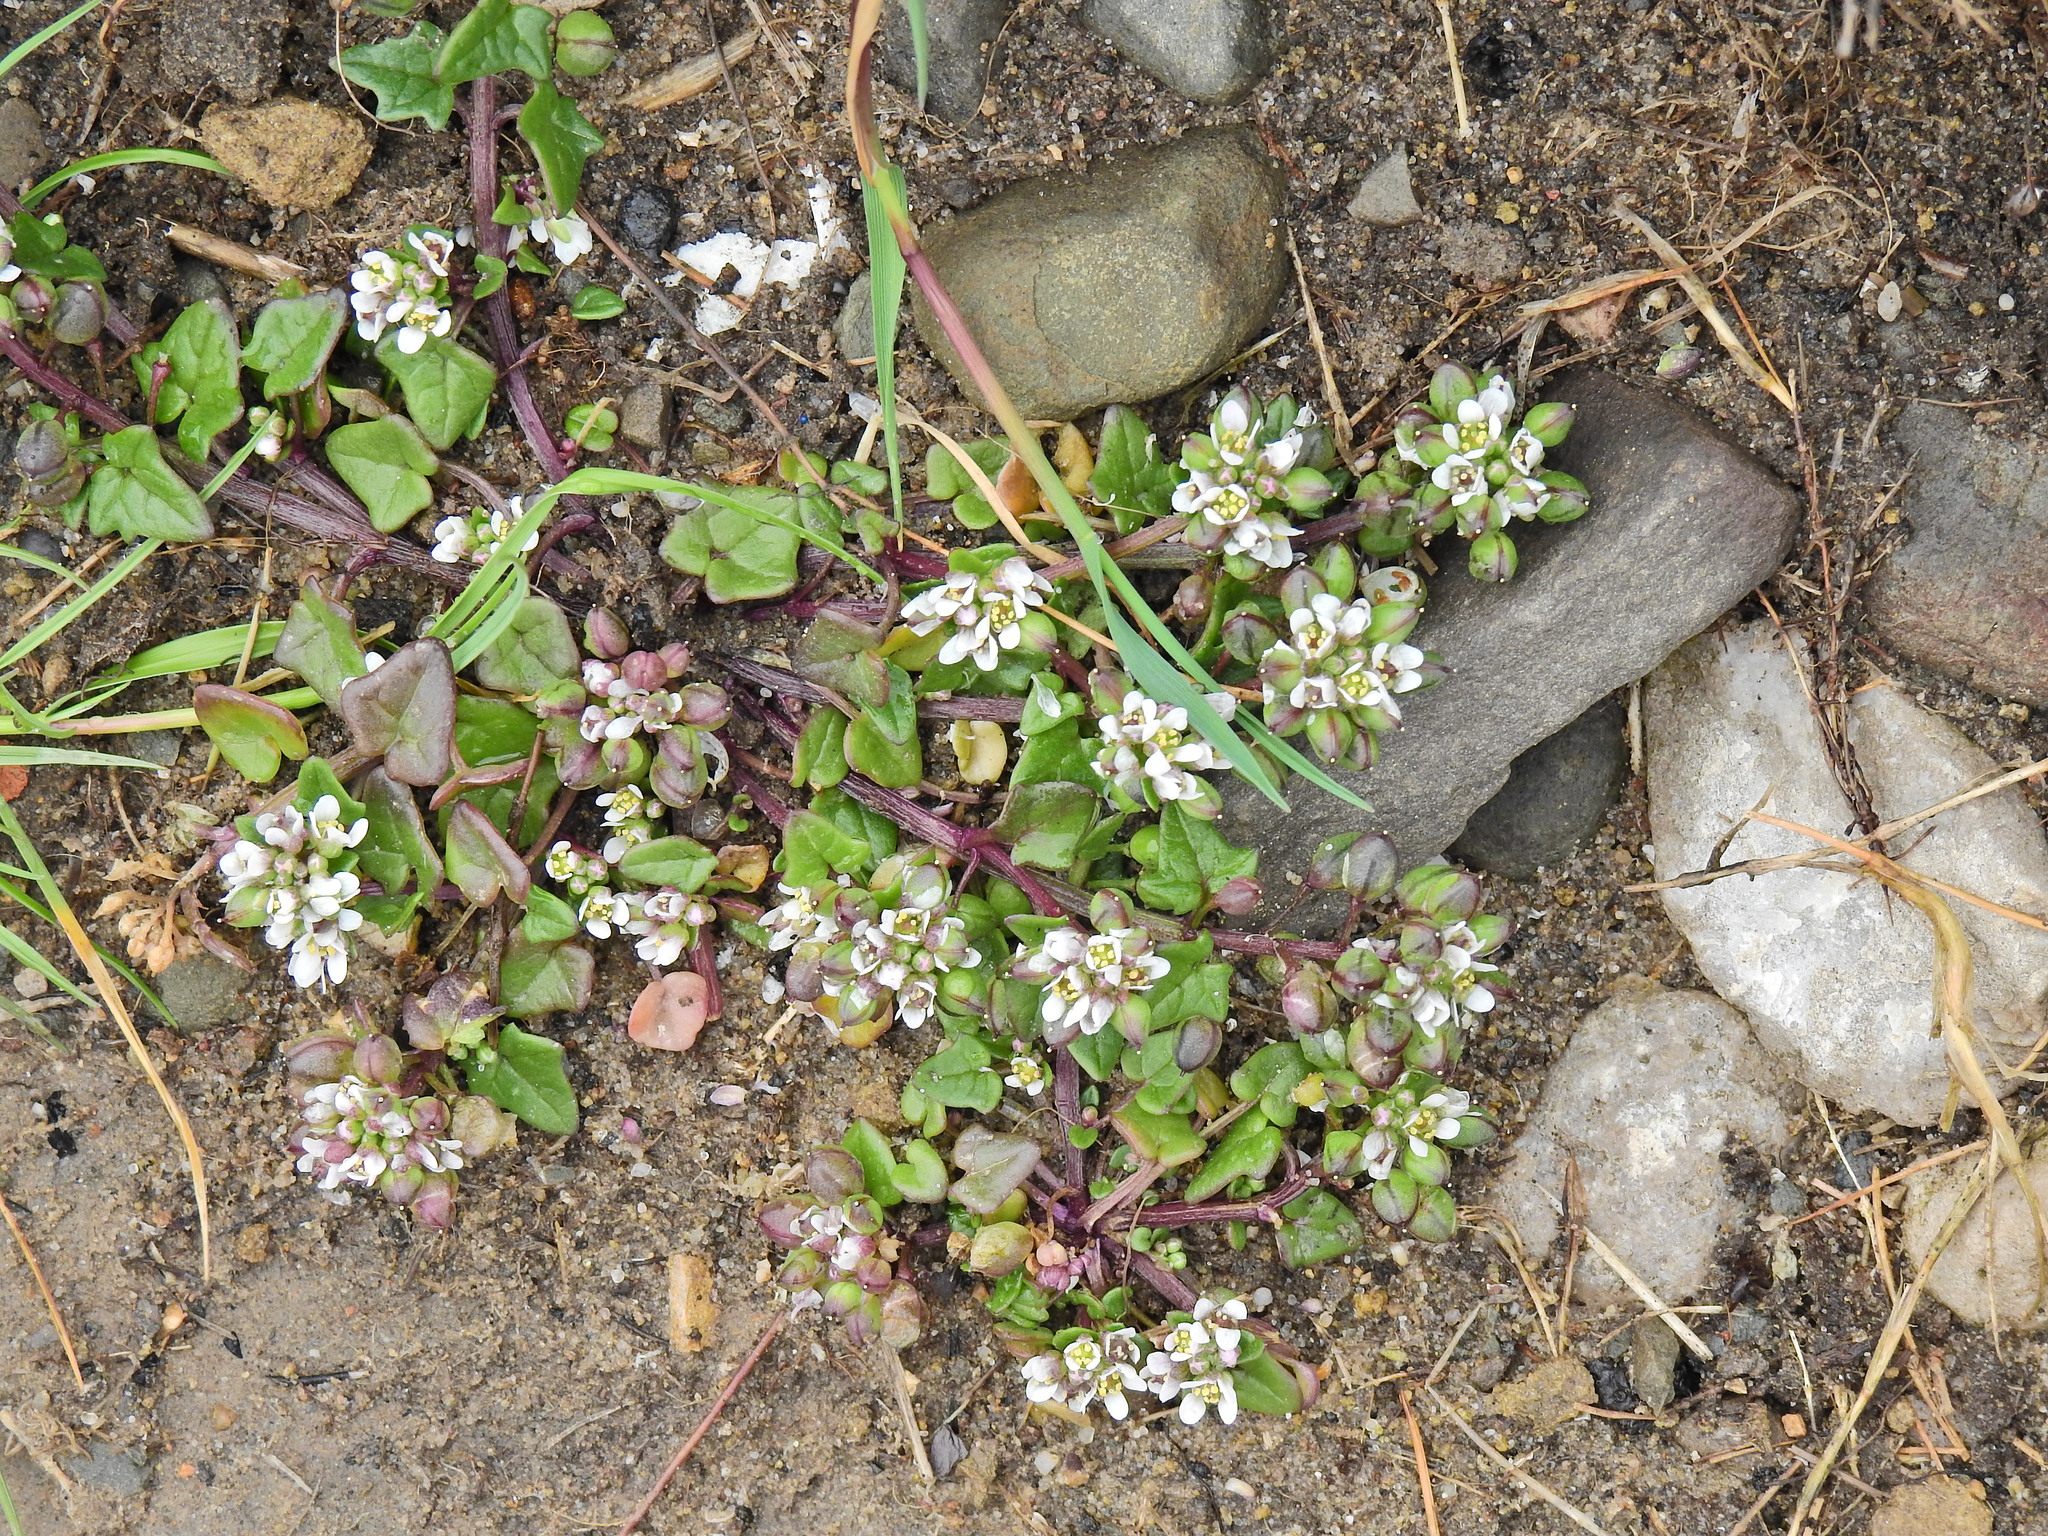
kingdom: Plantae
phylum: Tracheophyta
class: Magnoliopsida
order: Brassicales
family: Brassicaceae
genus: Cochlearia
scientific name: Cochlearia danica
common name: Early scurvygrass
